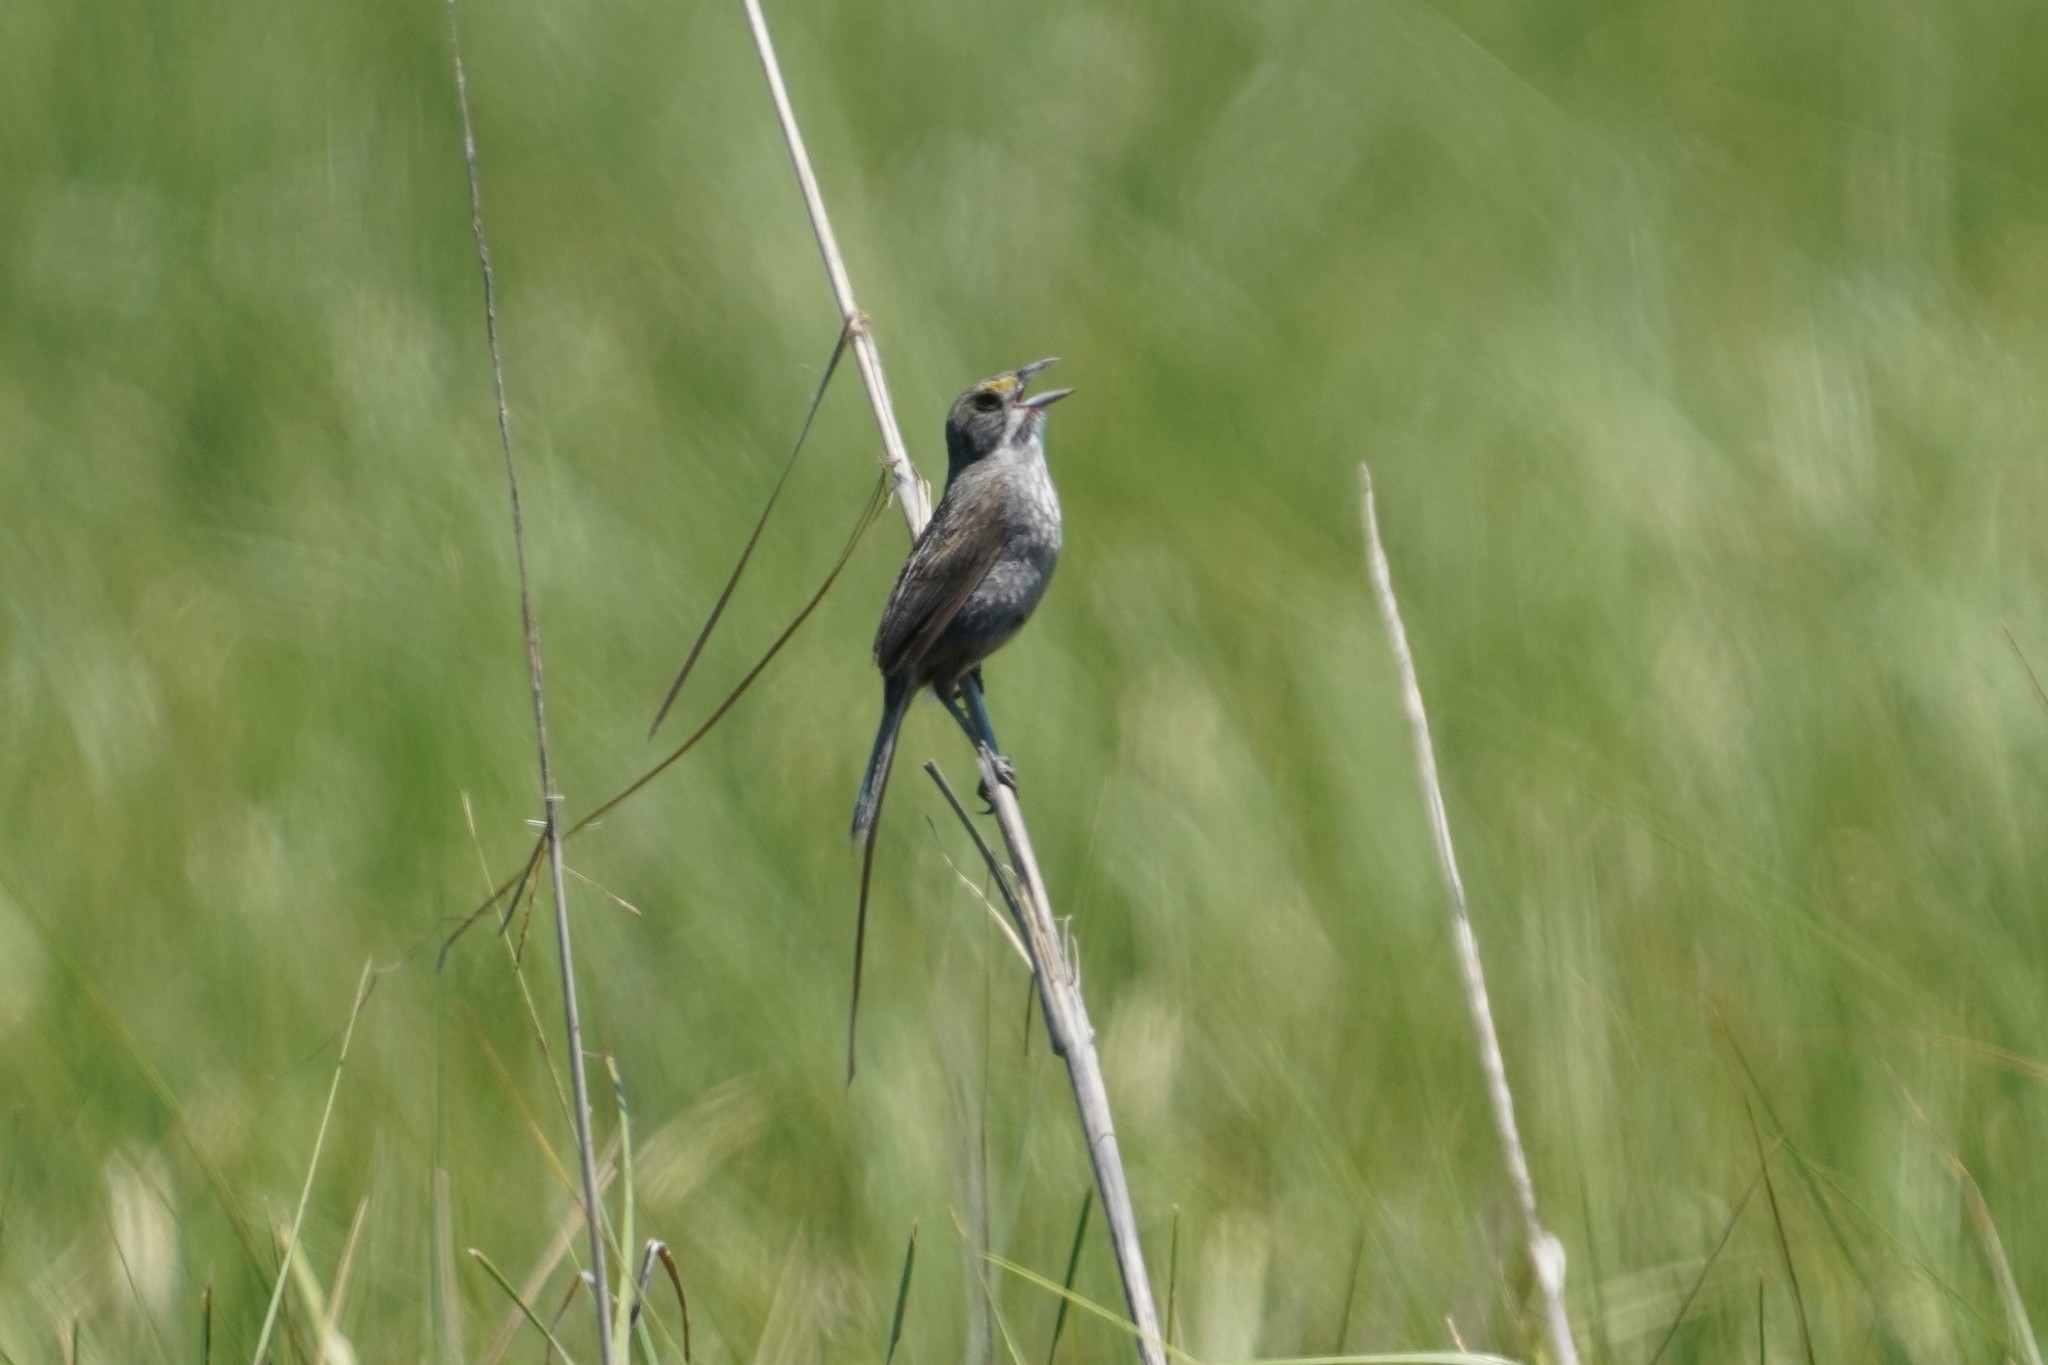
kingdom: Animalia
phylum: Chordata
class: Aves
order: Passeriformes
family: Passerellidae
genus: Ammospiza
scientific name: Ammospiza maritima
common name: Seaside sparrow
